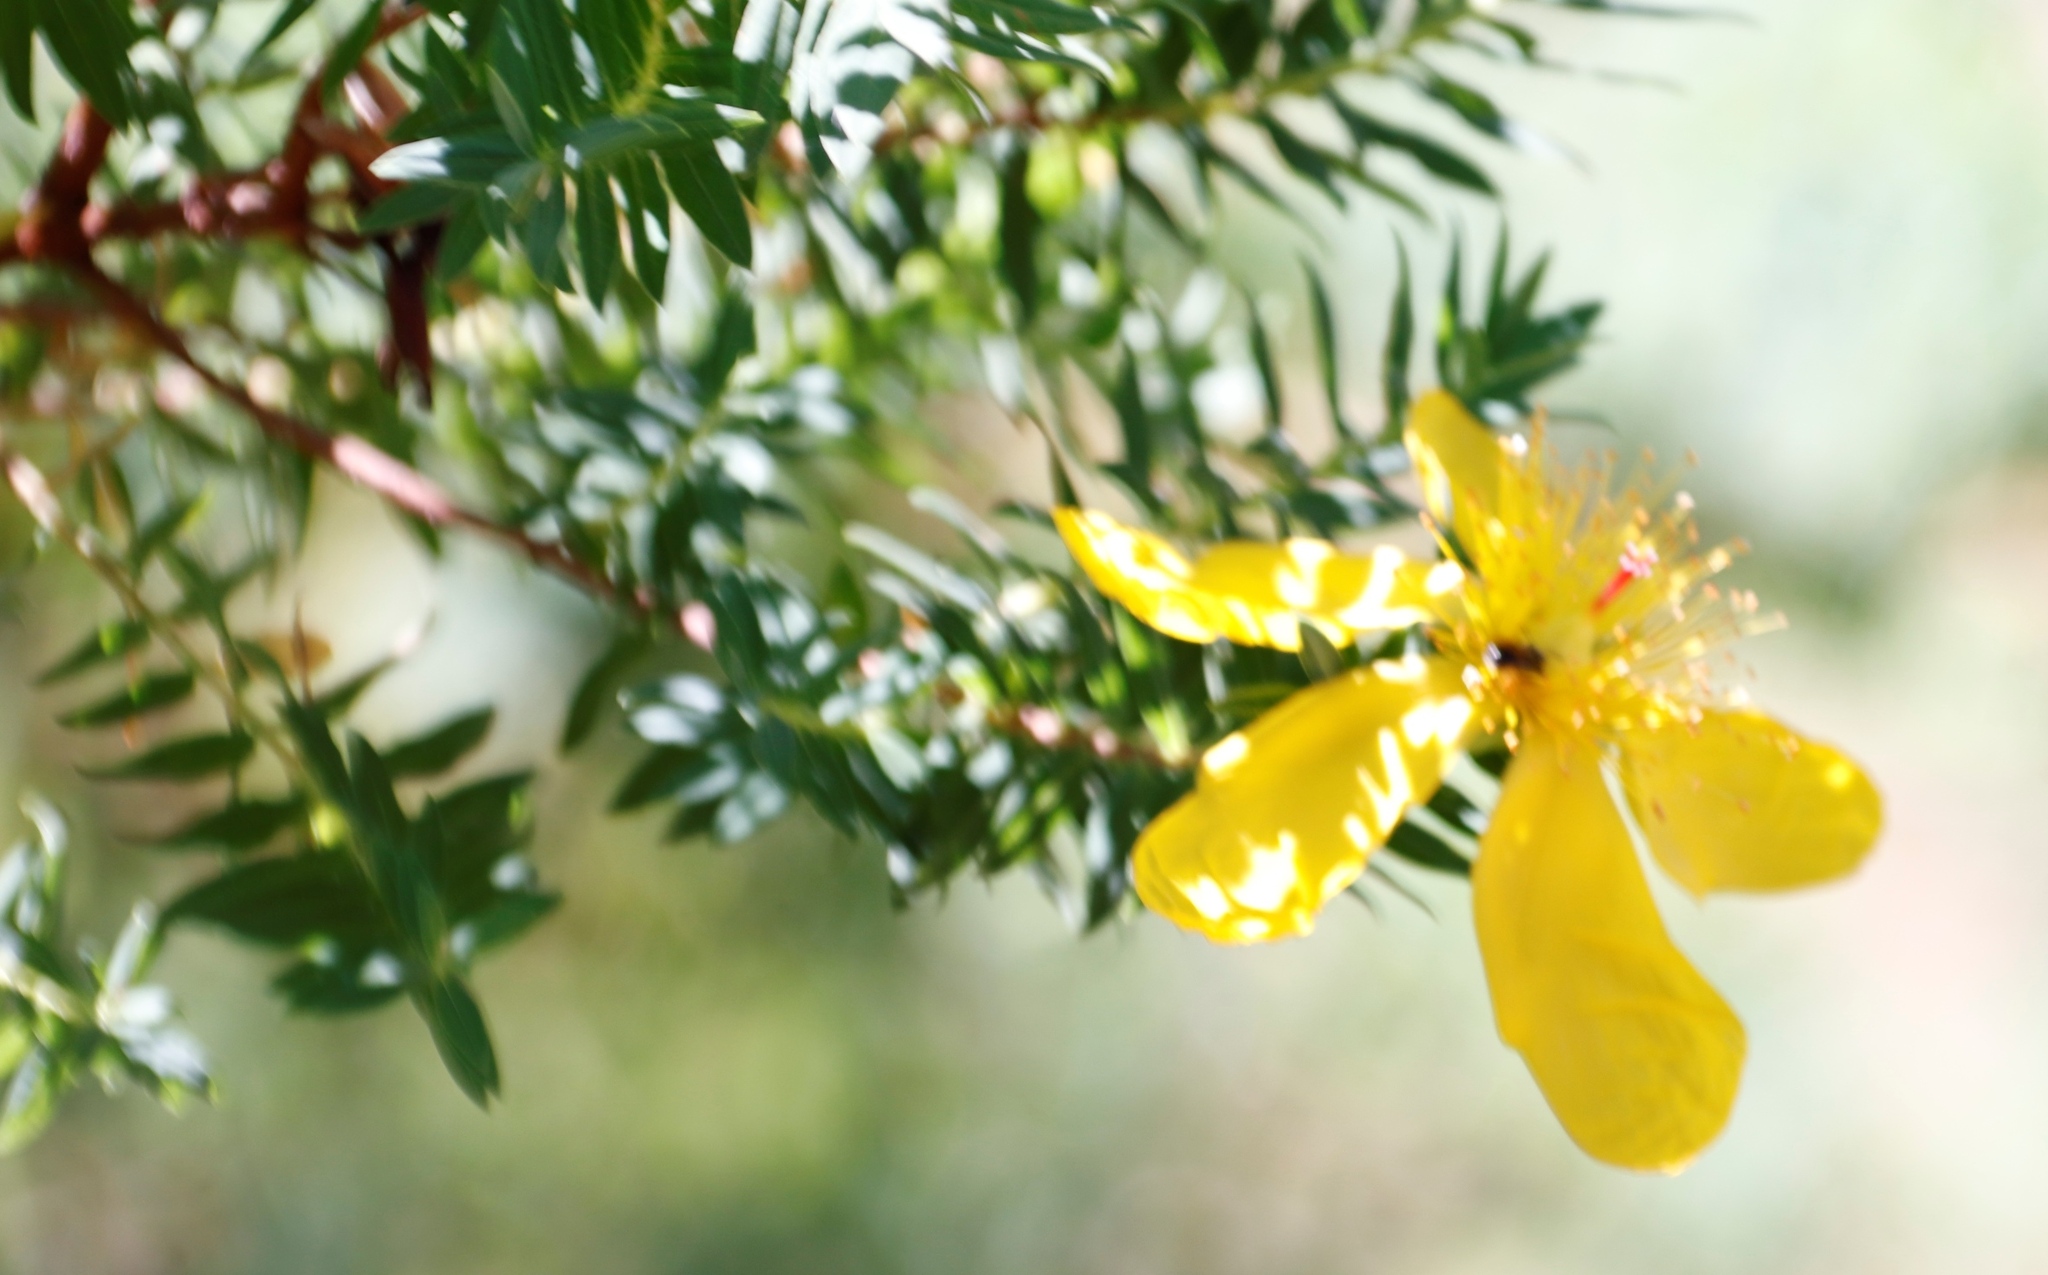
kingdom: Plantae
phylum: Tracheophyta
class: Magnoliopsida
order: Malpighiales
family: Hypericaceae
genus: Hypericum
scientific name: Hypericum revolutum
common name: Curry bush
